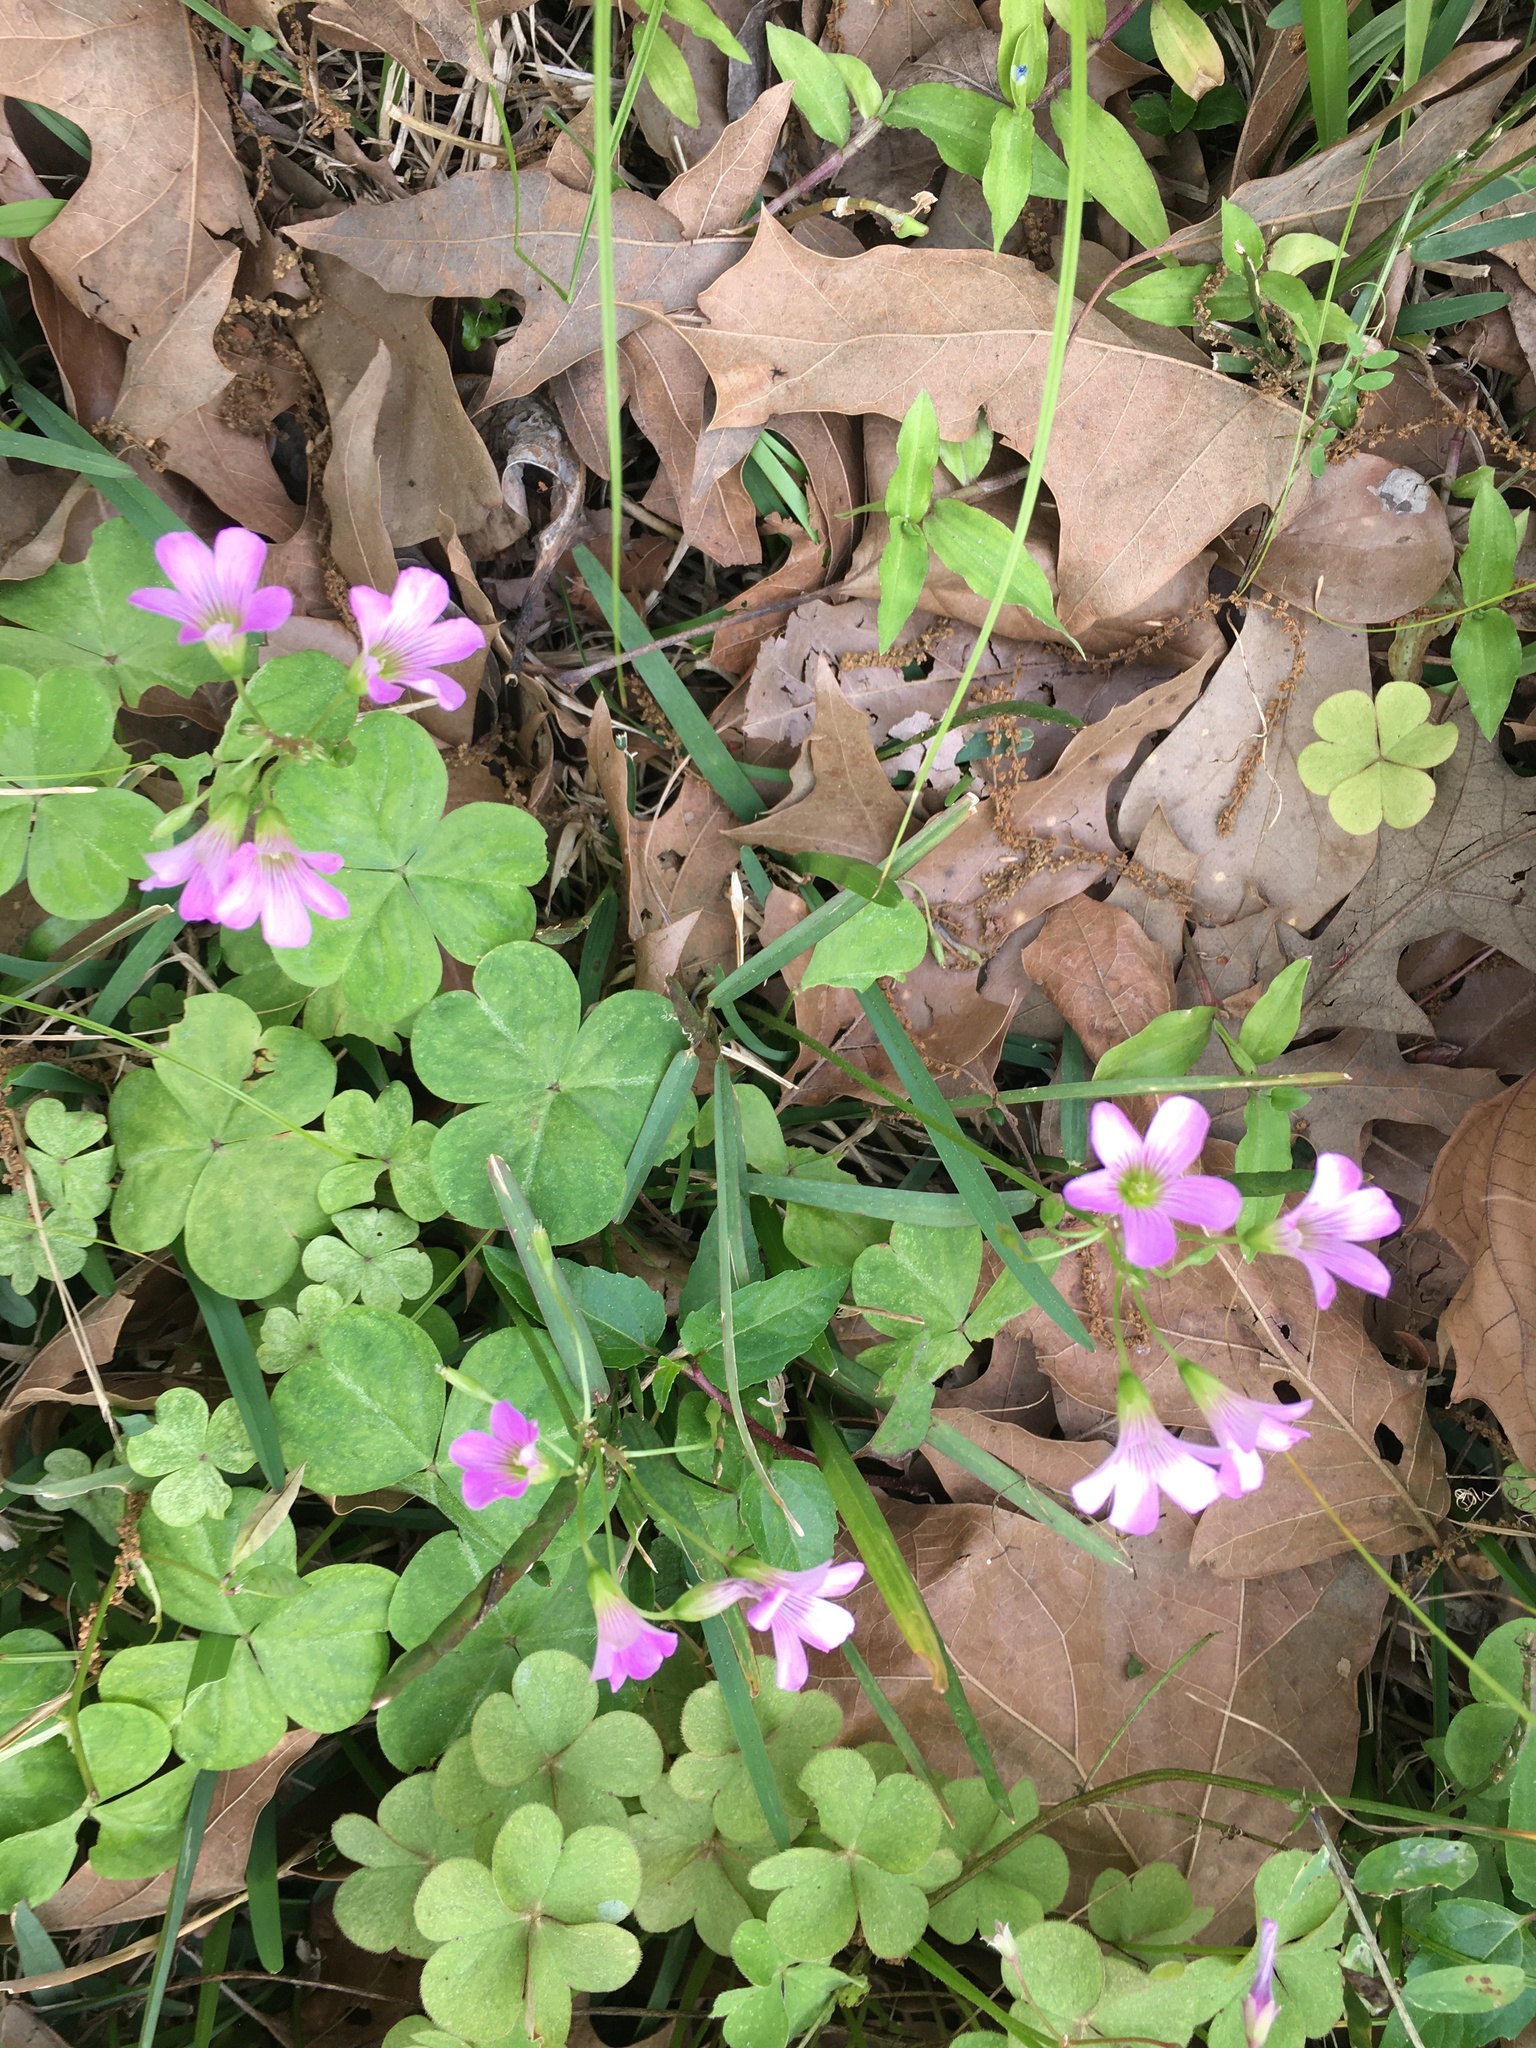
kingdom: Plantae
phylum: Tracheophyta
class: Magnoliopsida
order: Oxalidales
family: Oxalidaceae
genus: Oxalis
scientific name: Oxalis debilis
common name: Large-flowered pink-sorrel
